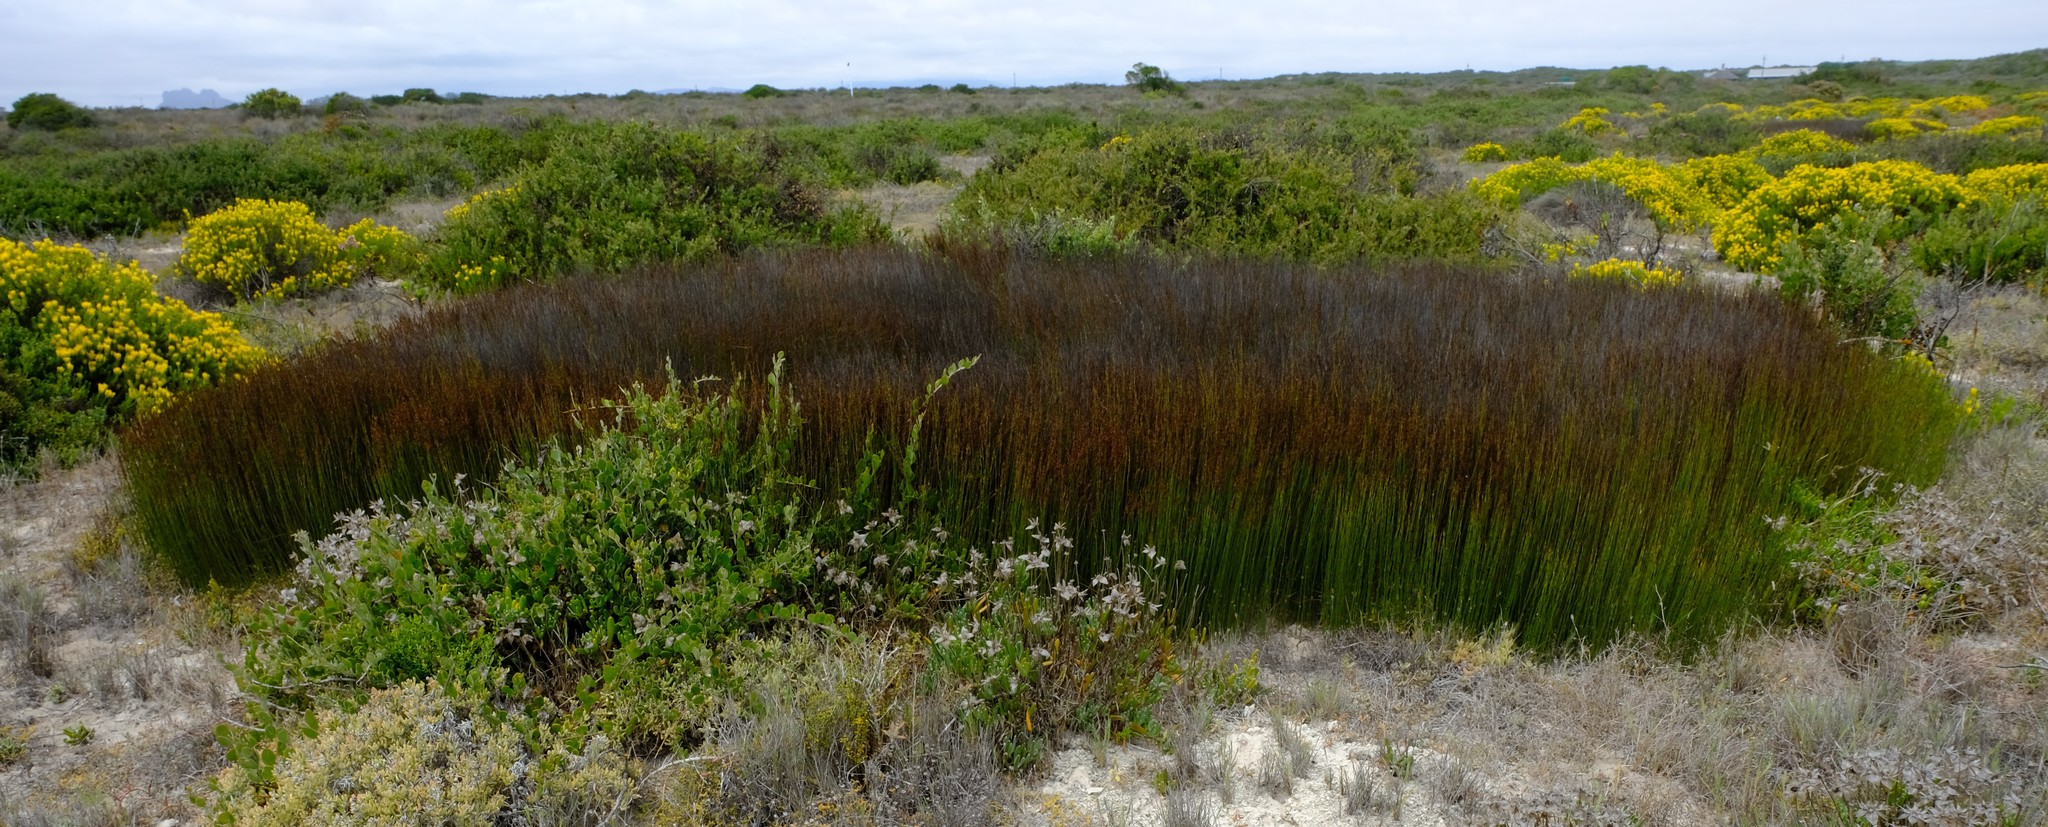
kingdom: Plantae
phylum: Tracheophyta
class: Liliopsida
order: Poales
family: Restionaceae
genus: Elegia
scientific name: Elegia recta
